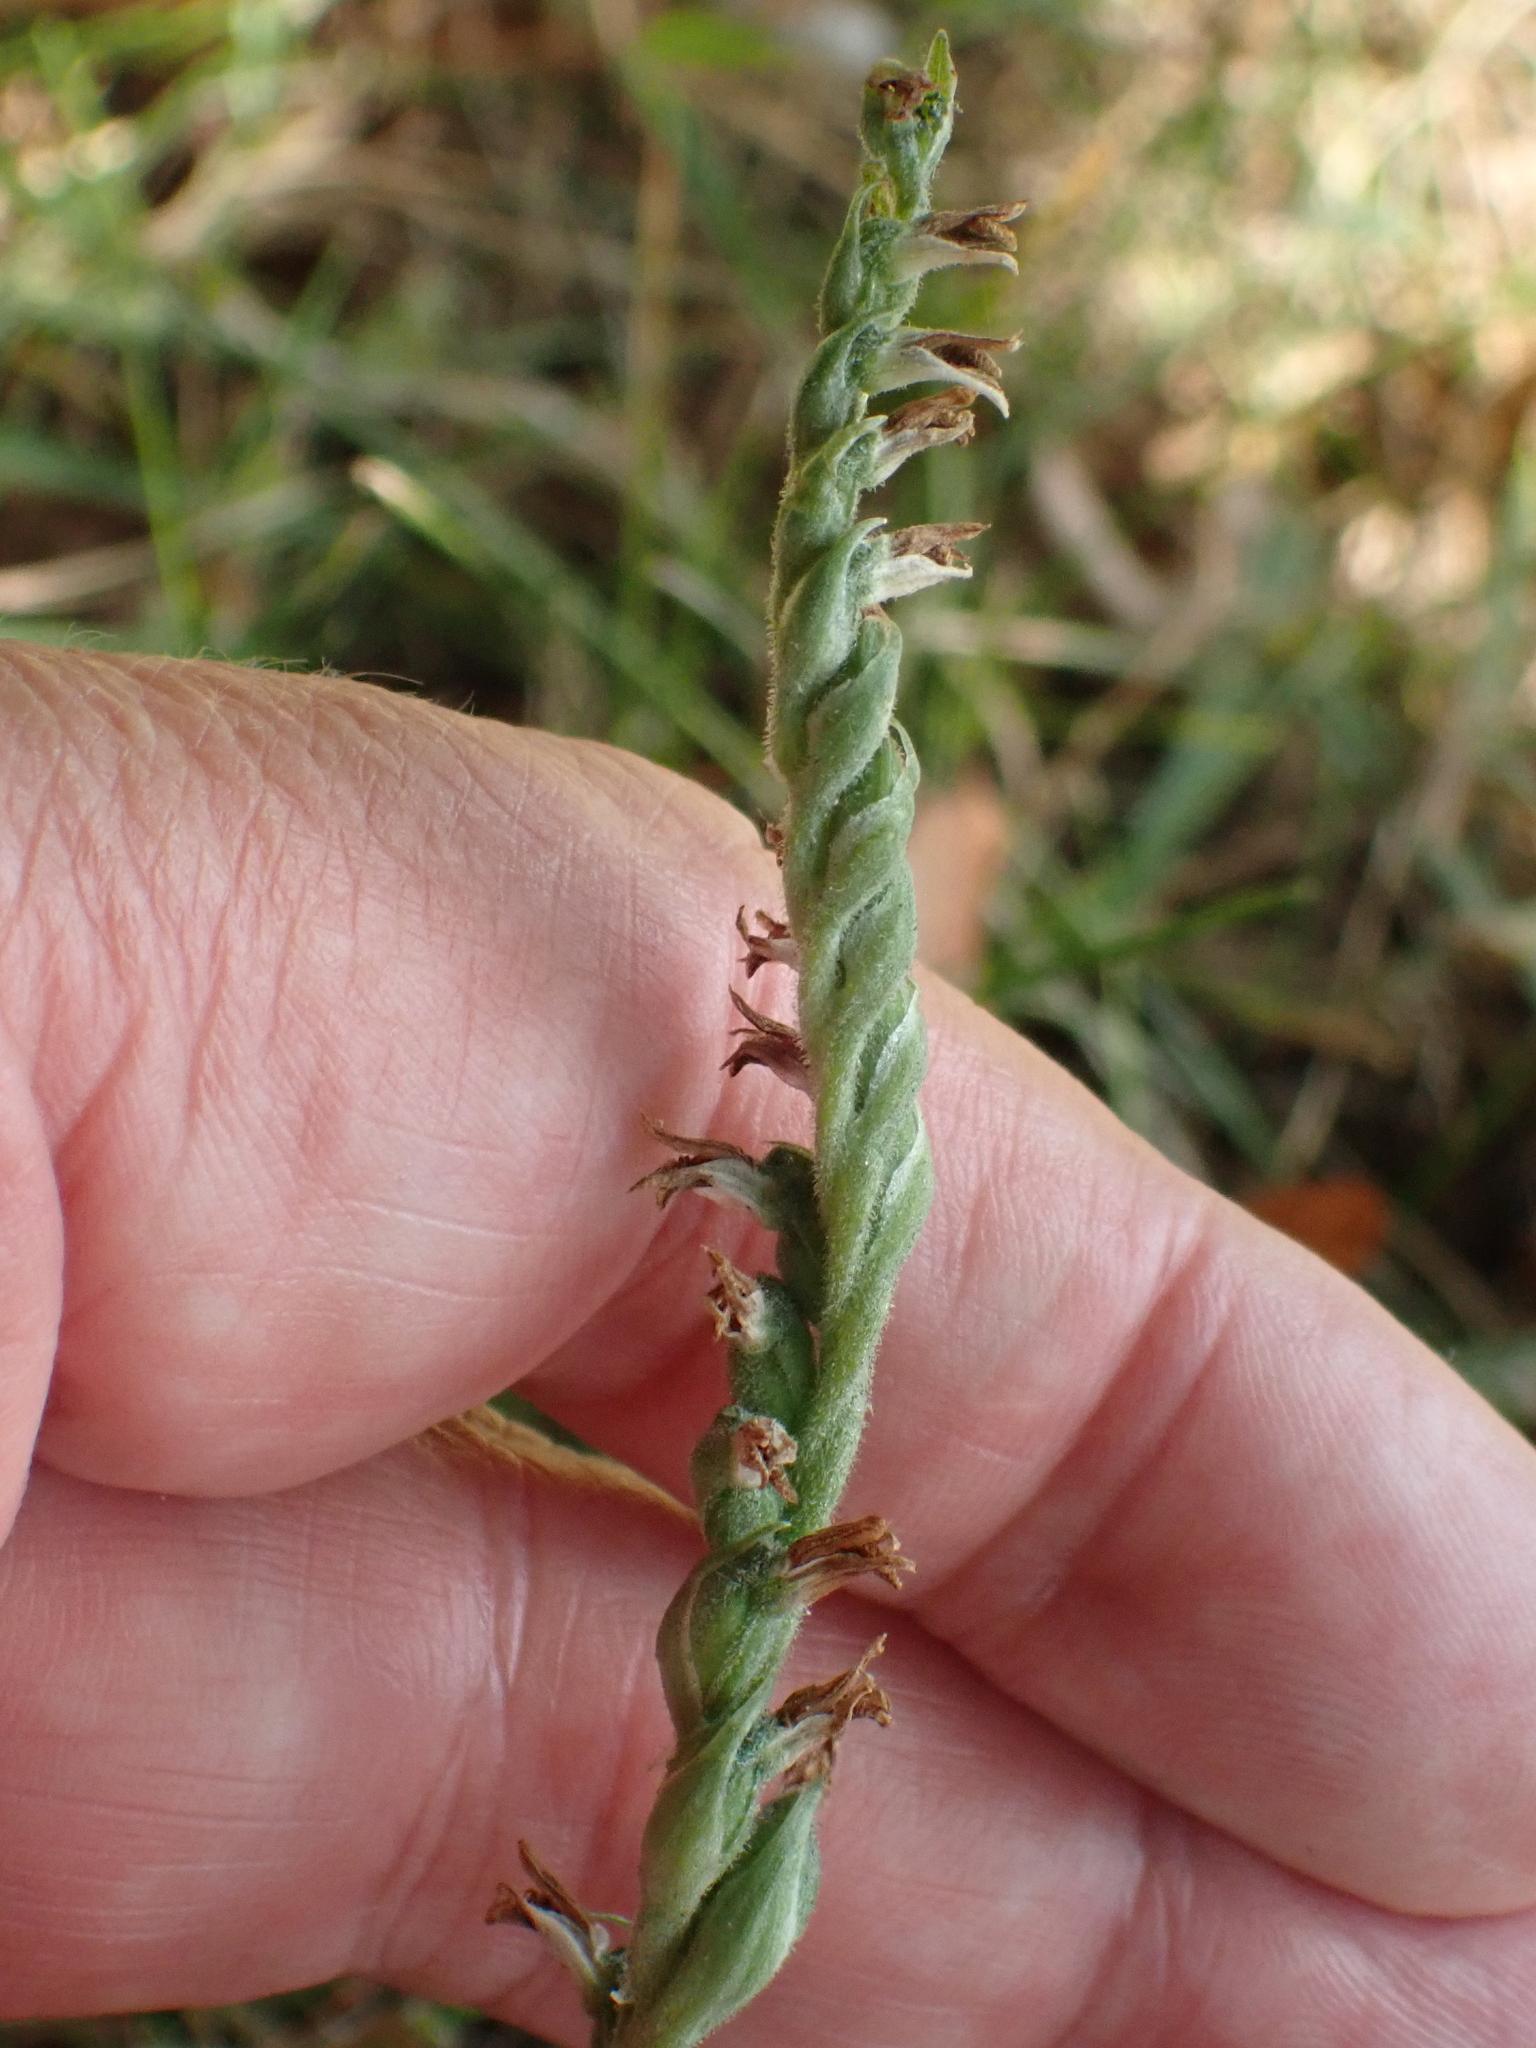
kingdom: Plantae
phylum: Tracheophyta
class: Liliopsida
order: Asparagales
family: Orchidaceae
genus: Spiranthes
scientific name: Spiranthes spiralis
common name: Autumn lady's-tresses
